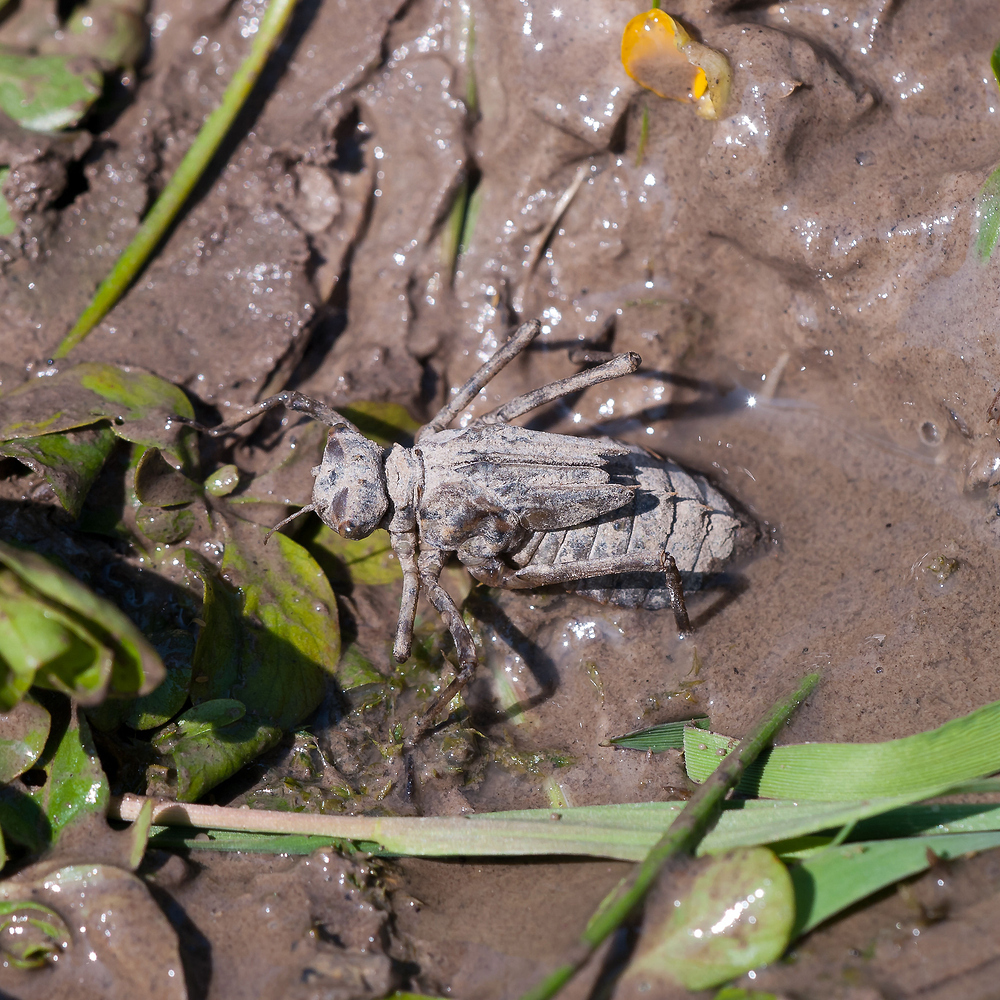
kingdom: Animalia
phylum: Arthropoda
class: Insecta
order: Odonata
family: Corduliidae
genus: Epitheca
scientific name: Epitheca bimaculata
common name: Eurasian baskettail
